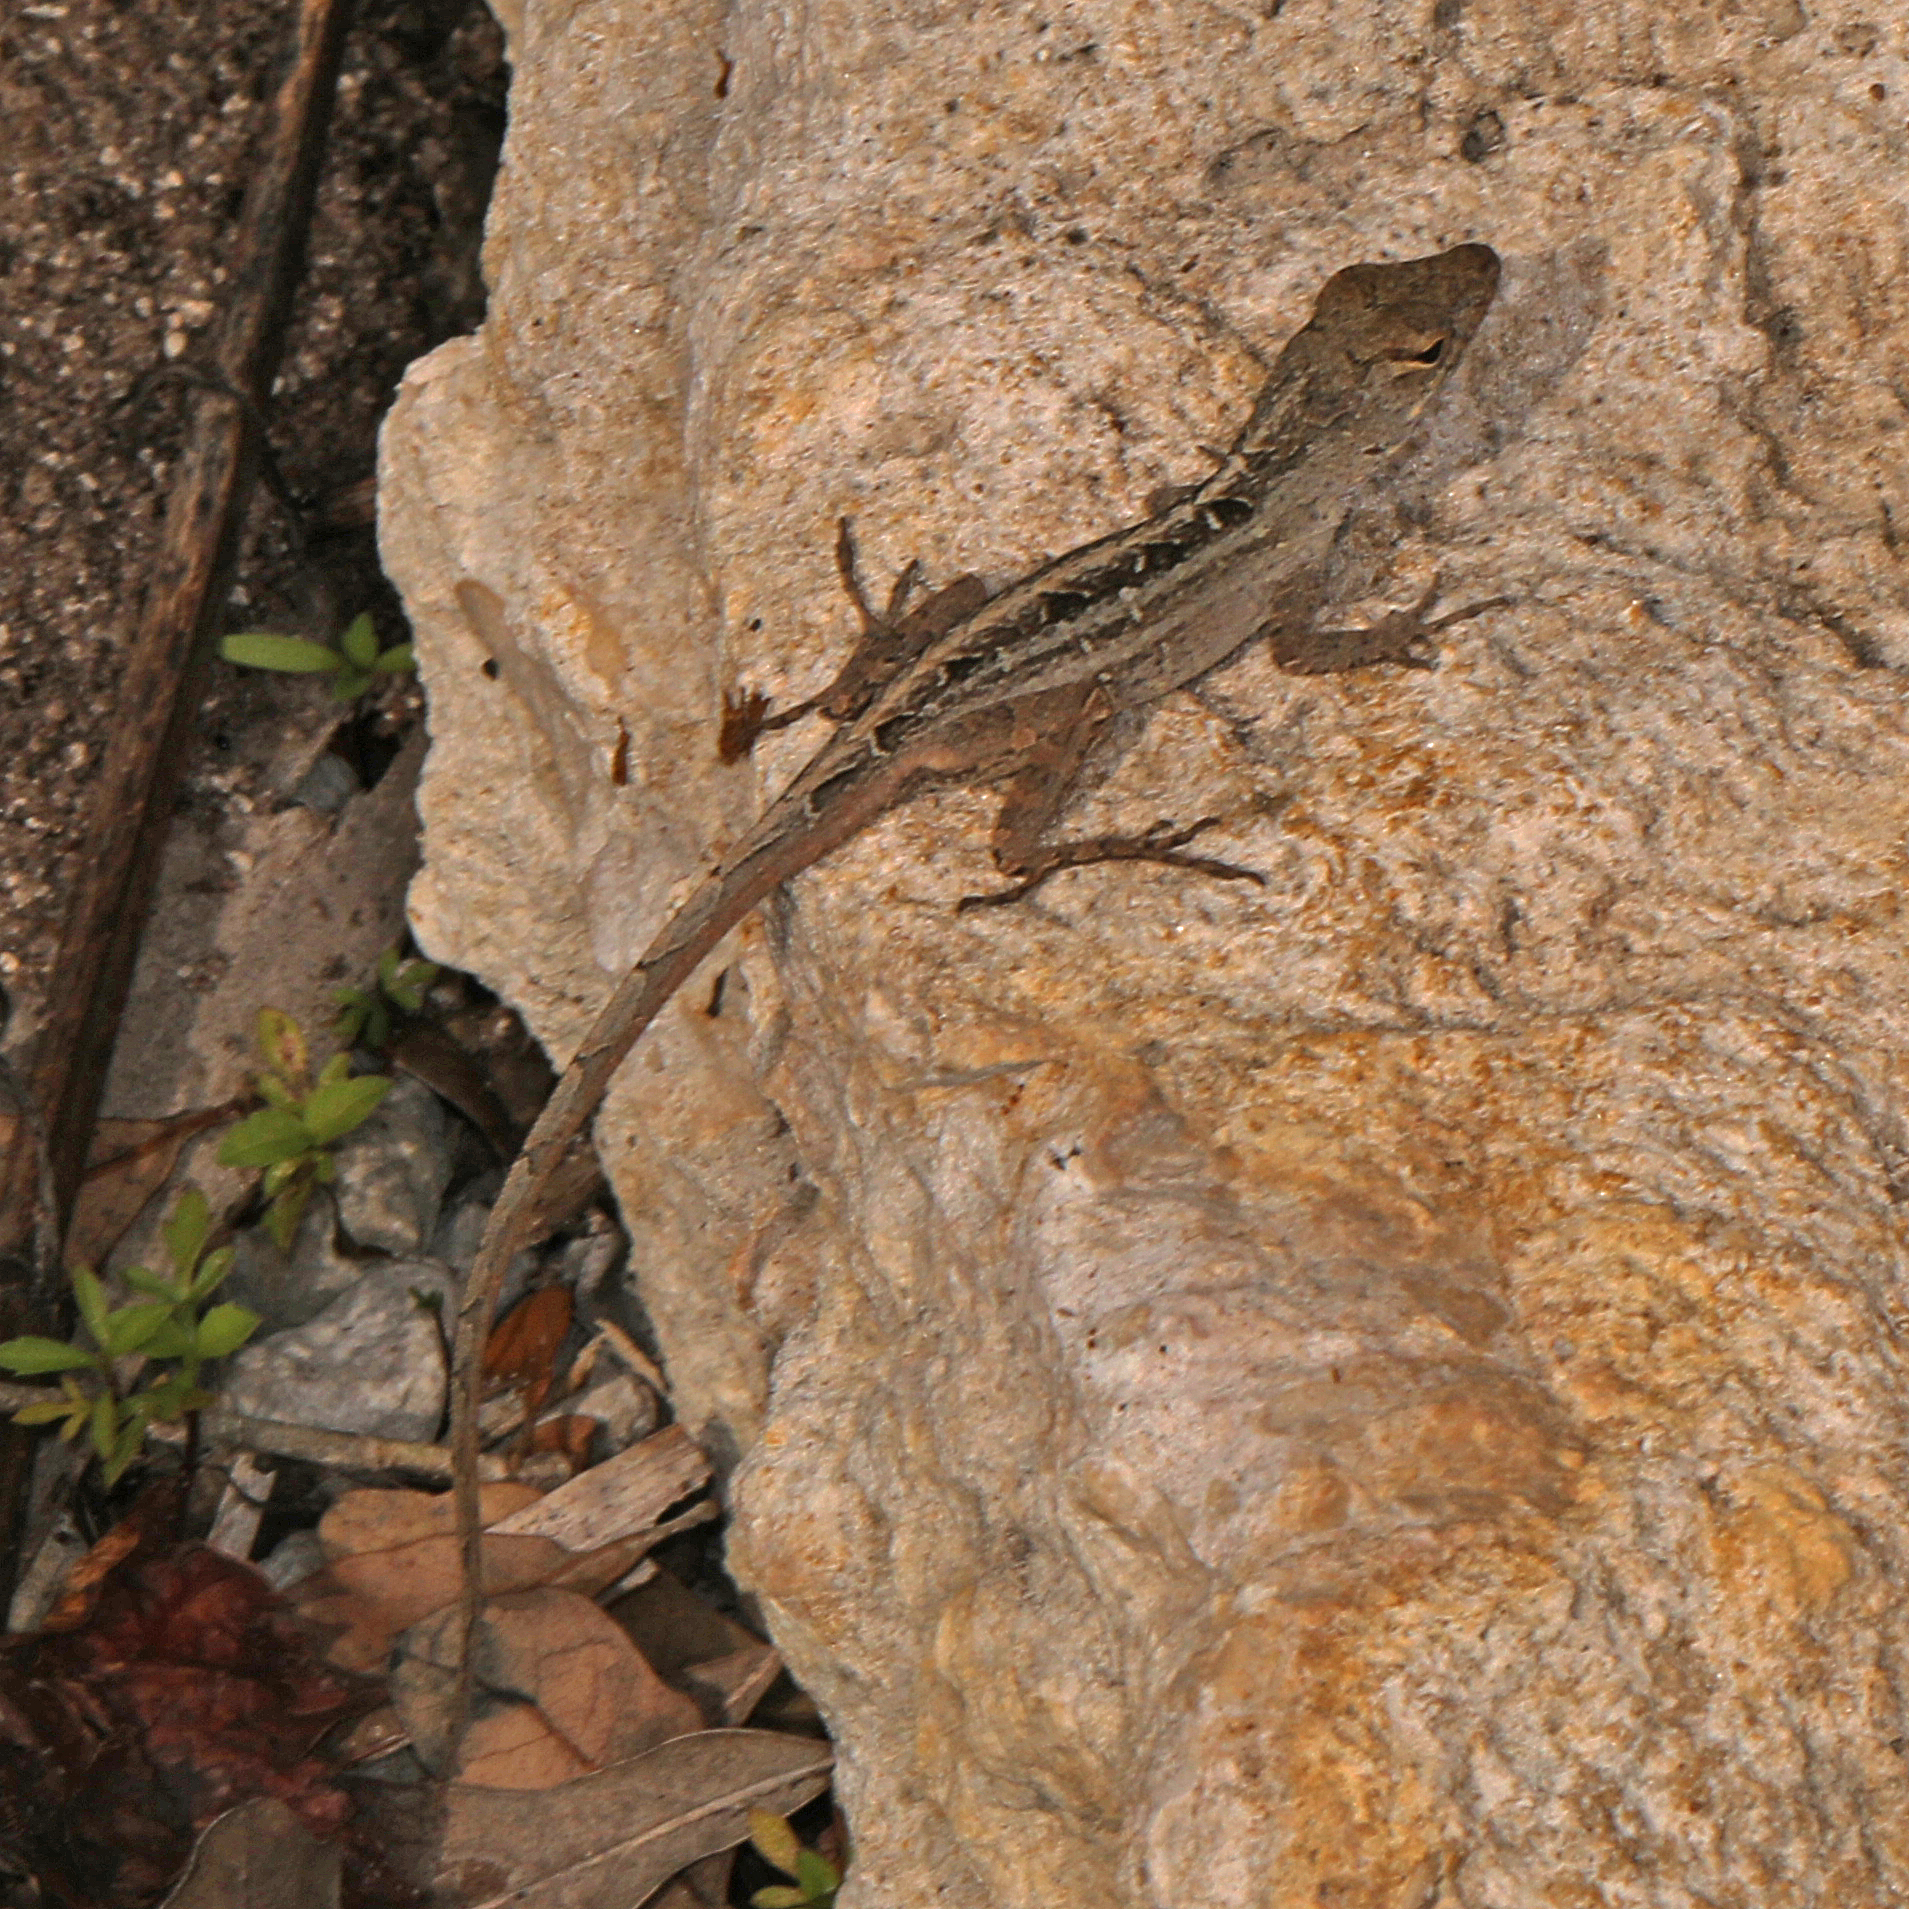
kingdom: Animalia
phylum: Chordata
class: Squamata
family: Dactyloidae
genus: Anolis
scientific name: Anolis sagrei
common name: Brown anole
